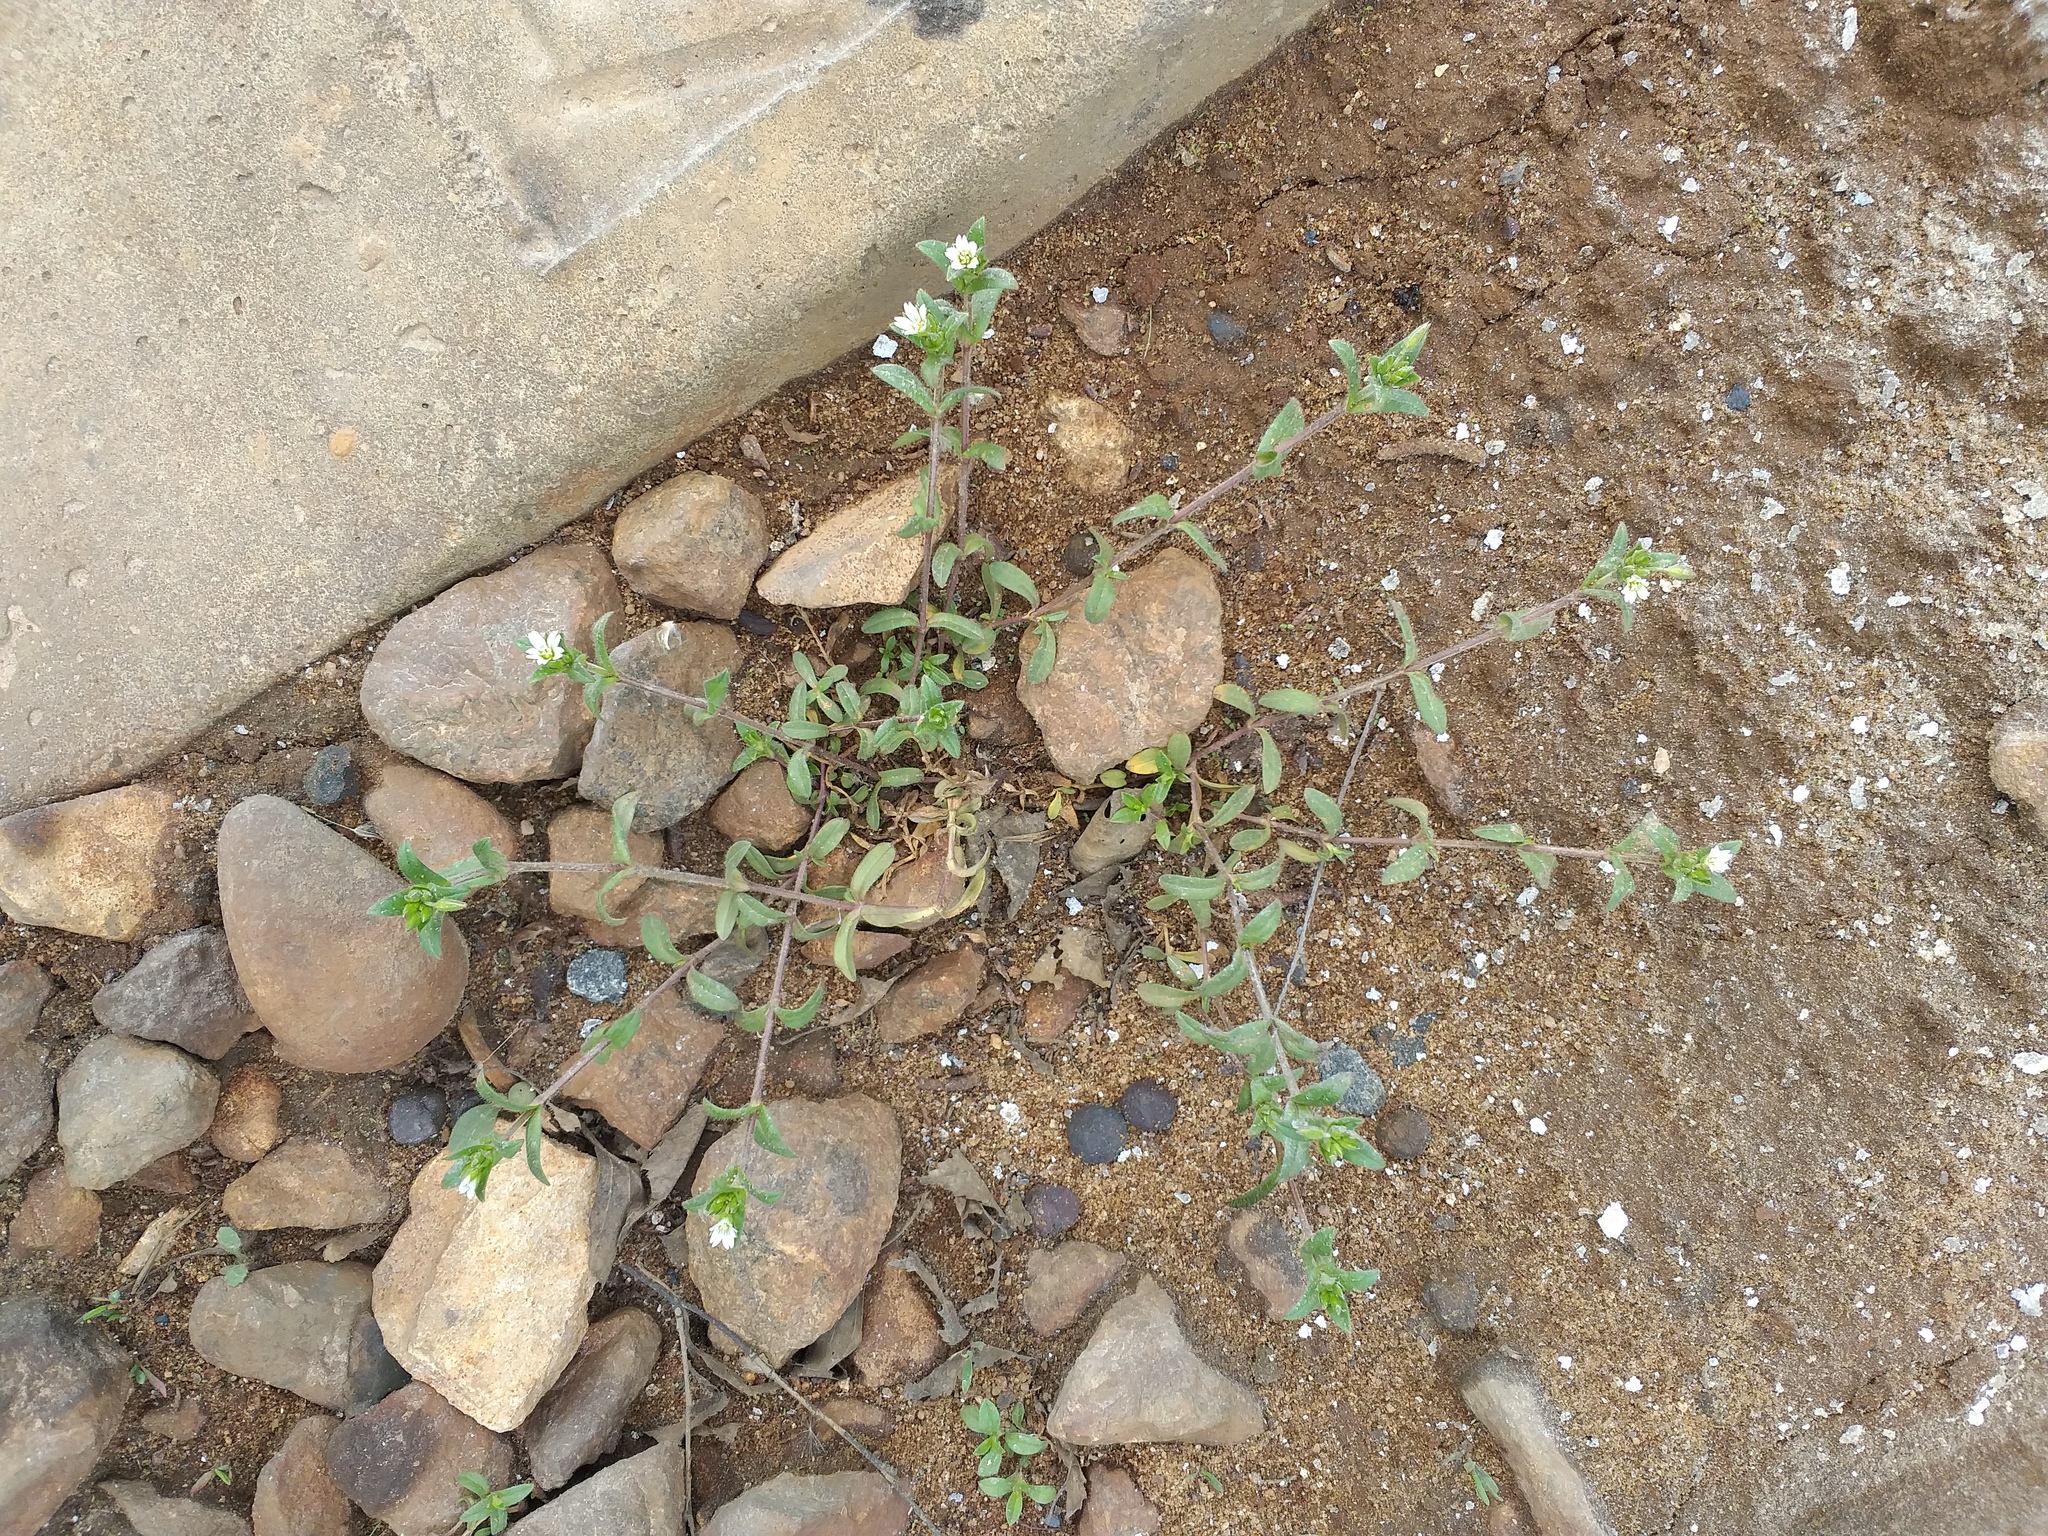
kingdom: Plantae
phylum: Tracheophyta
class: Magnoliopsida
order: Caryophyllales
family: Caryophyllaceae
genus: Cerastium
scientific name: Cerastium holosteoides
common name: Big chickweed
